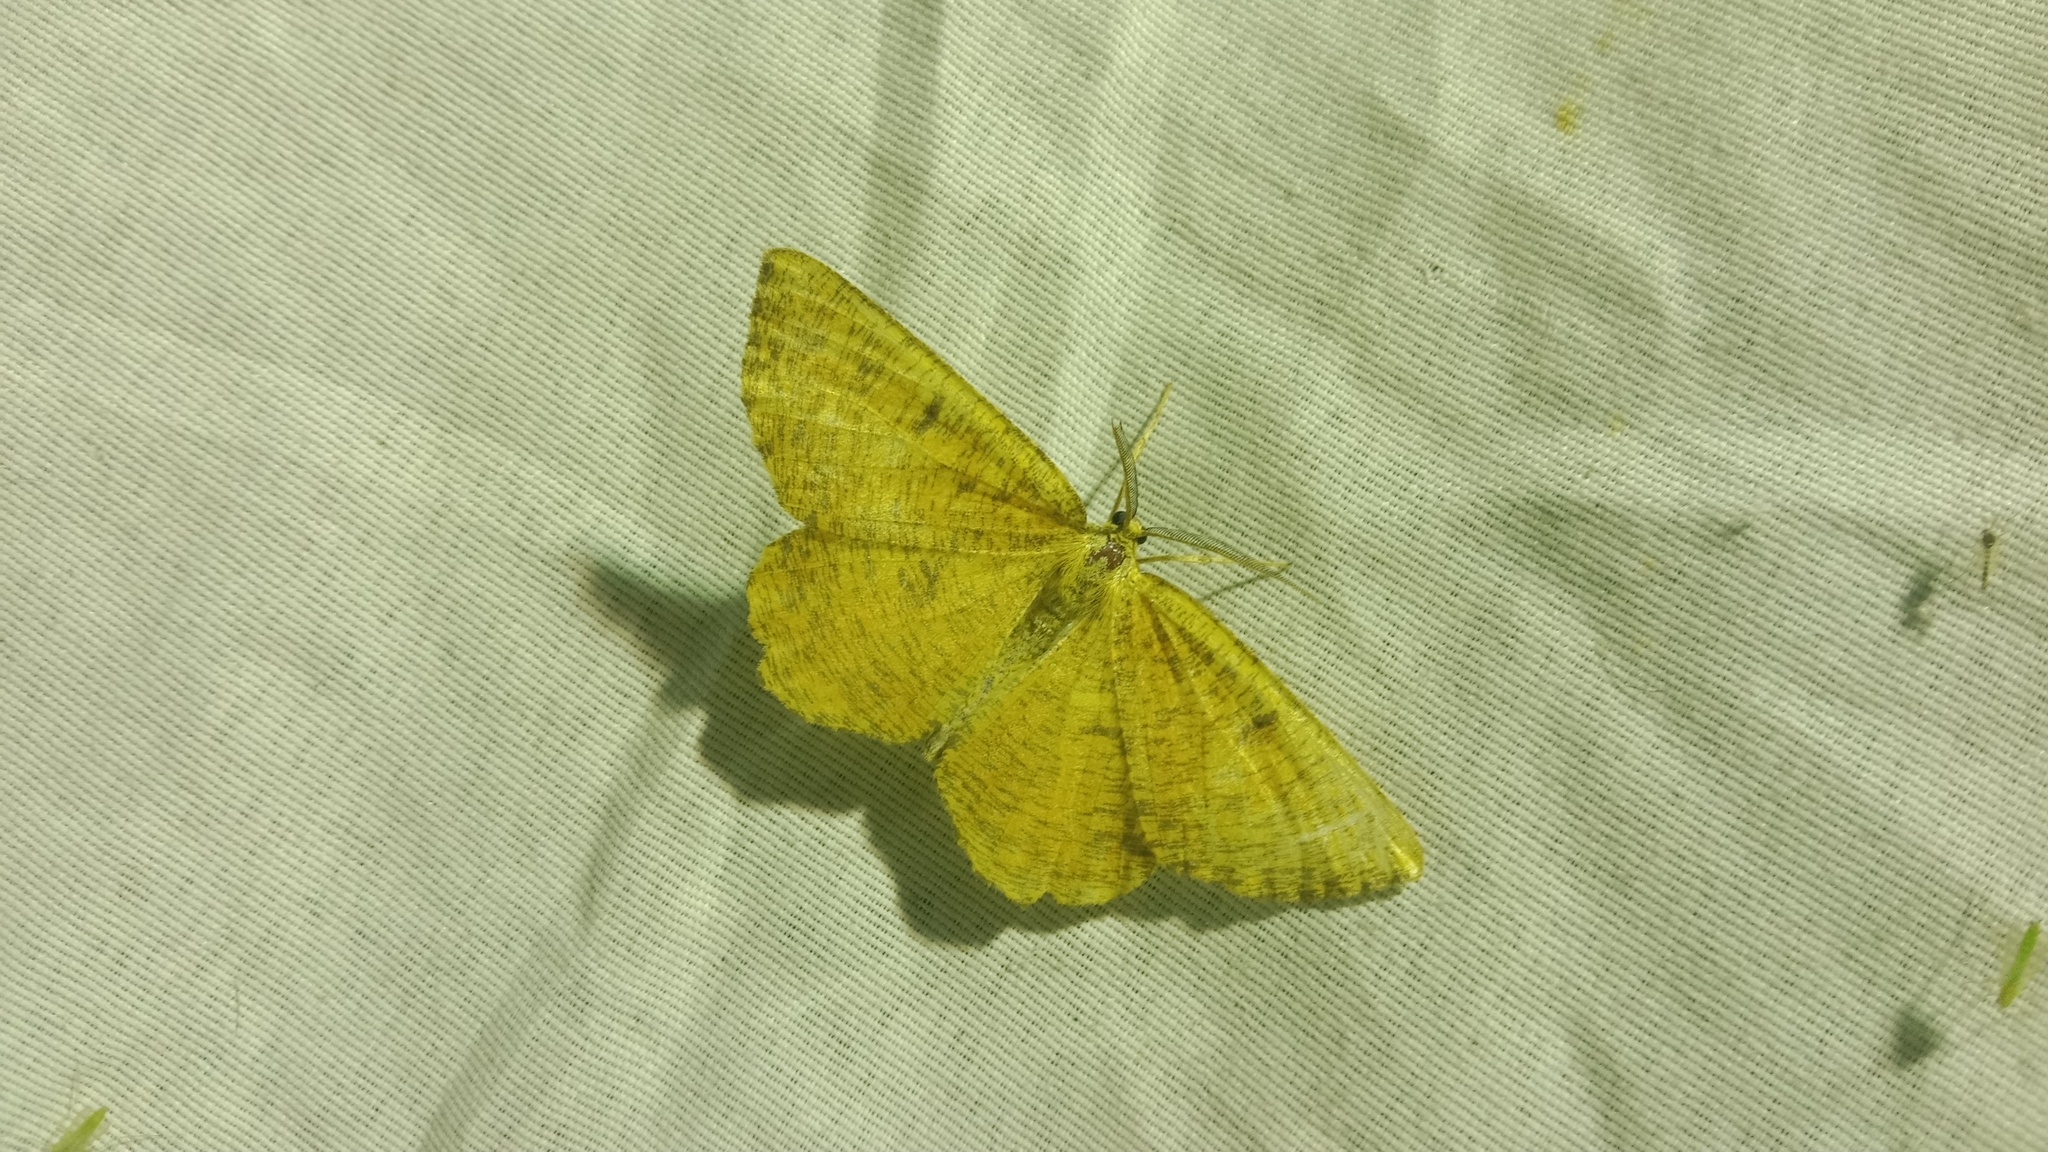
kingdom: Animalia
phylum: Arthropoda
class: Insecta
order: Lepidoptera
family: Geometridae
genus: Angerona
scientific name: Angerona prunaria
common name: Orange moth
